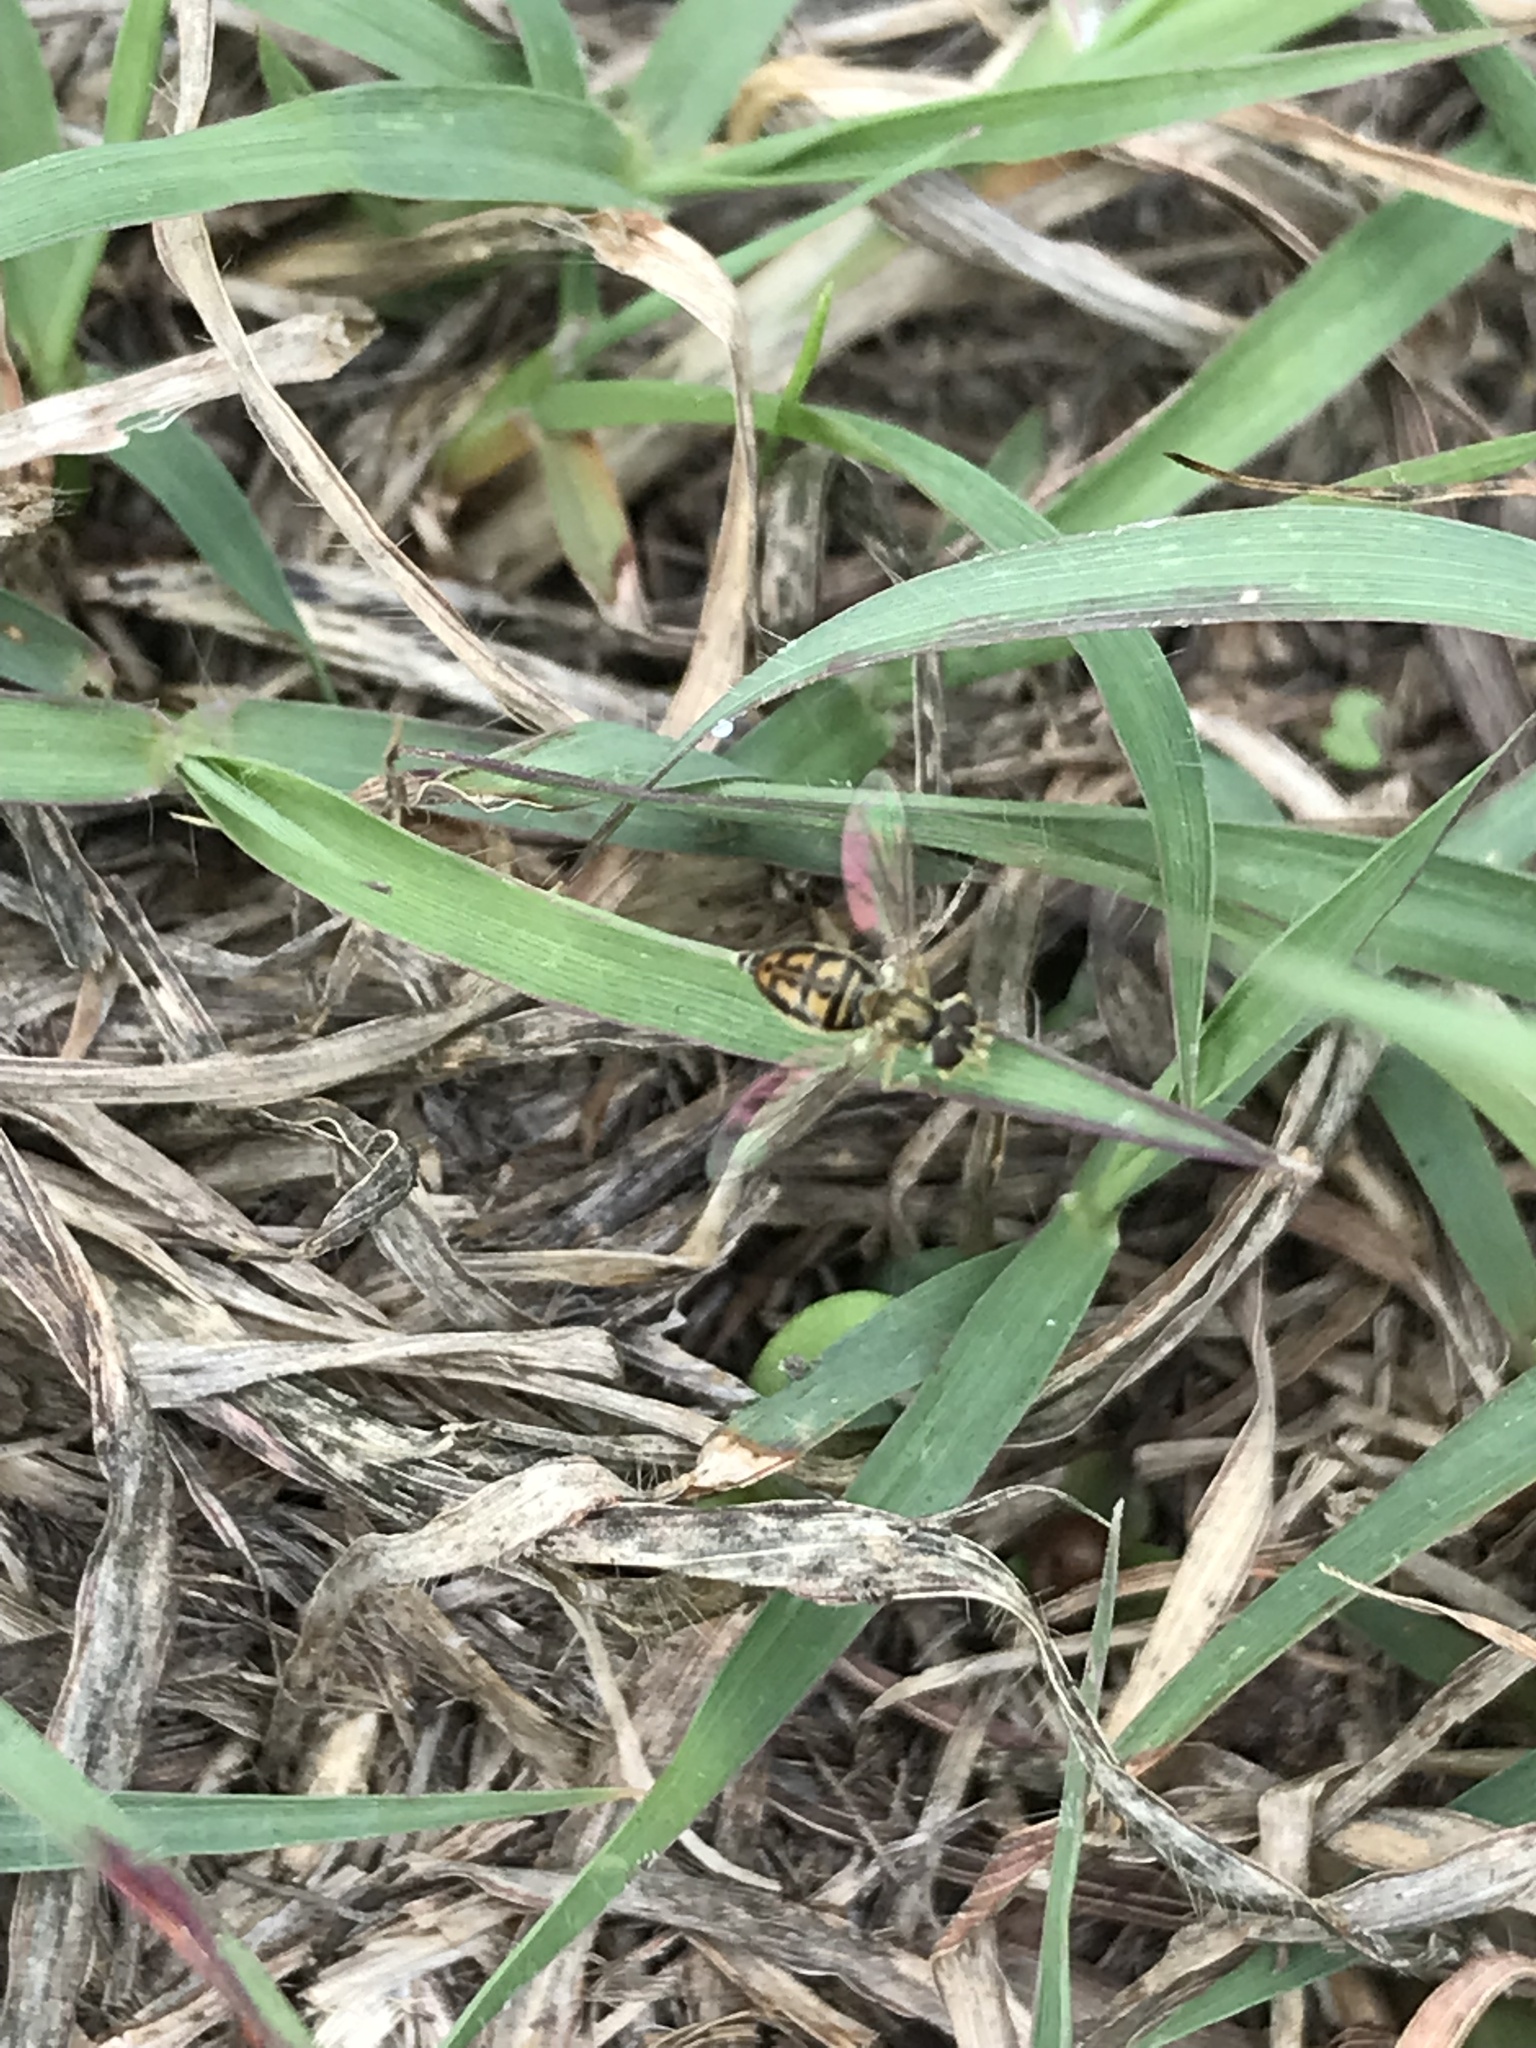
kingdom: Animalia
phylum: Arthropoda
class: Insecta
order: Diptera
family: Syrphidae
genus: Toxomerus
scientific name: Toxomerus marginatus
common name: Syrphid fly
